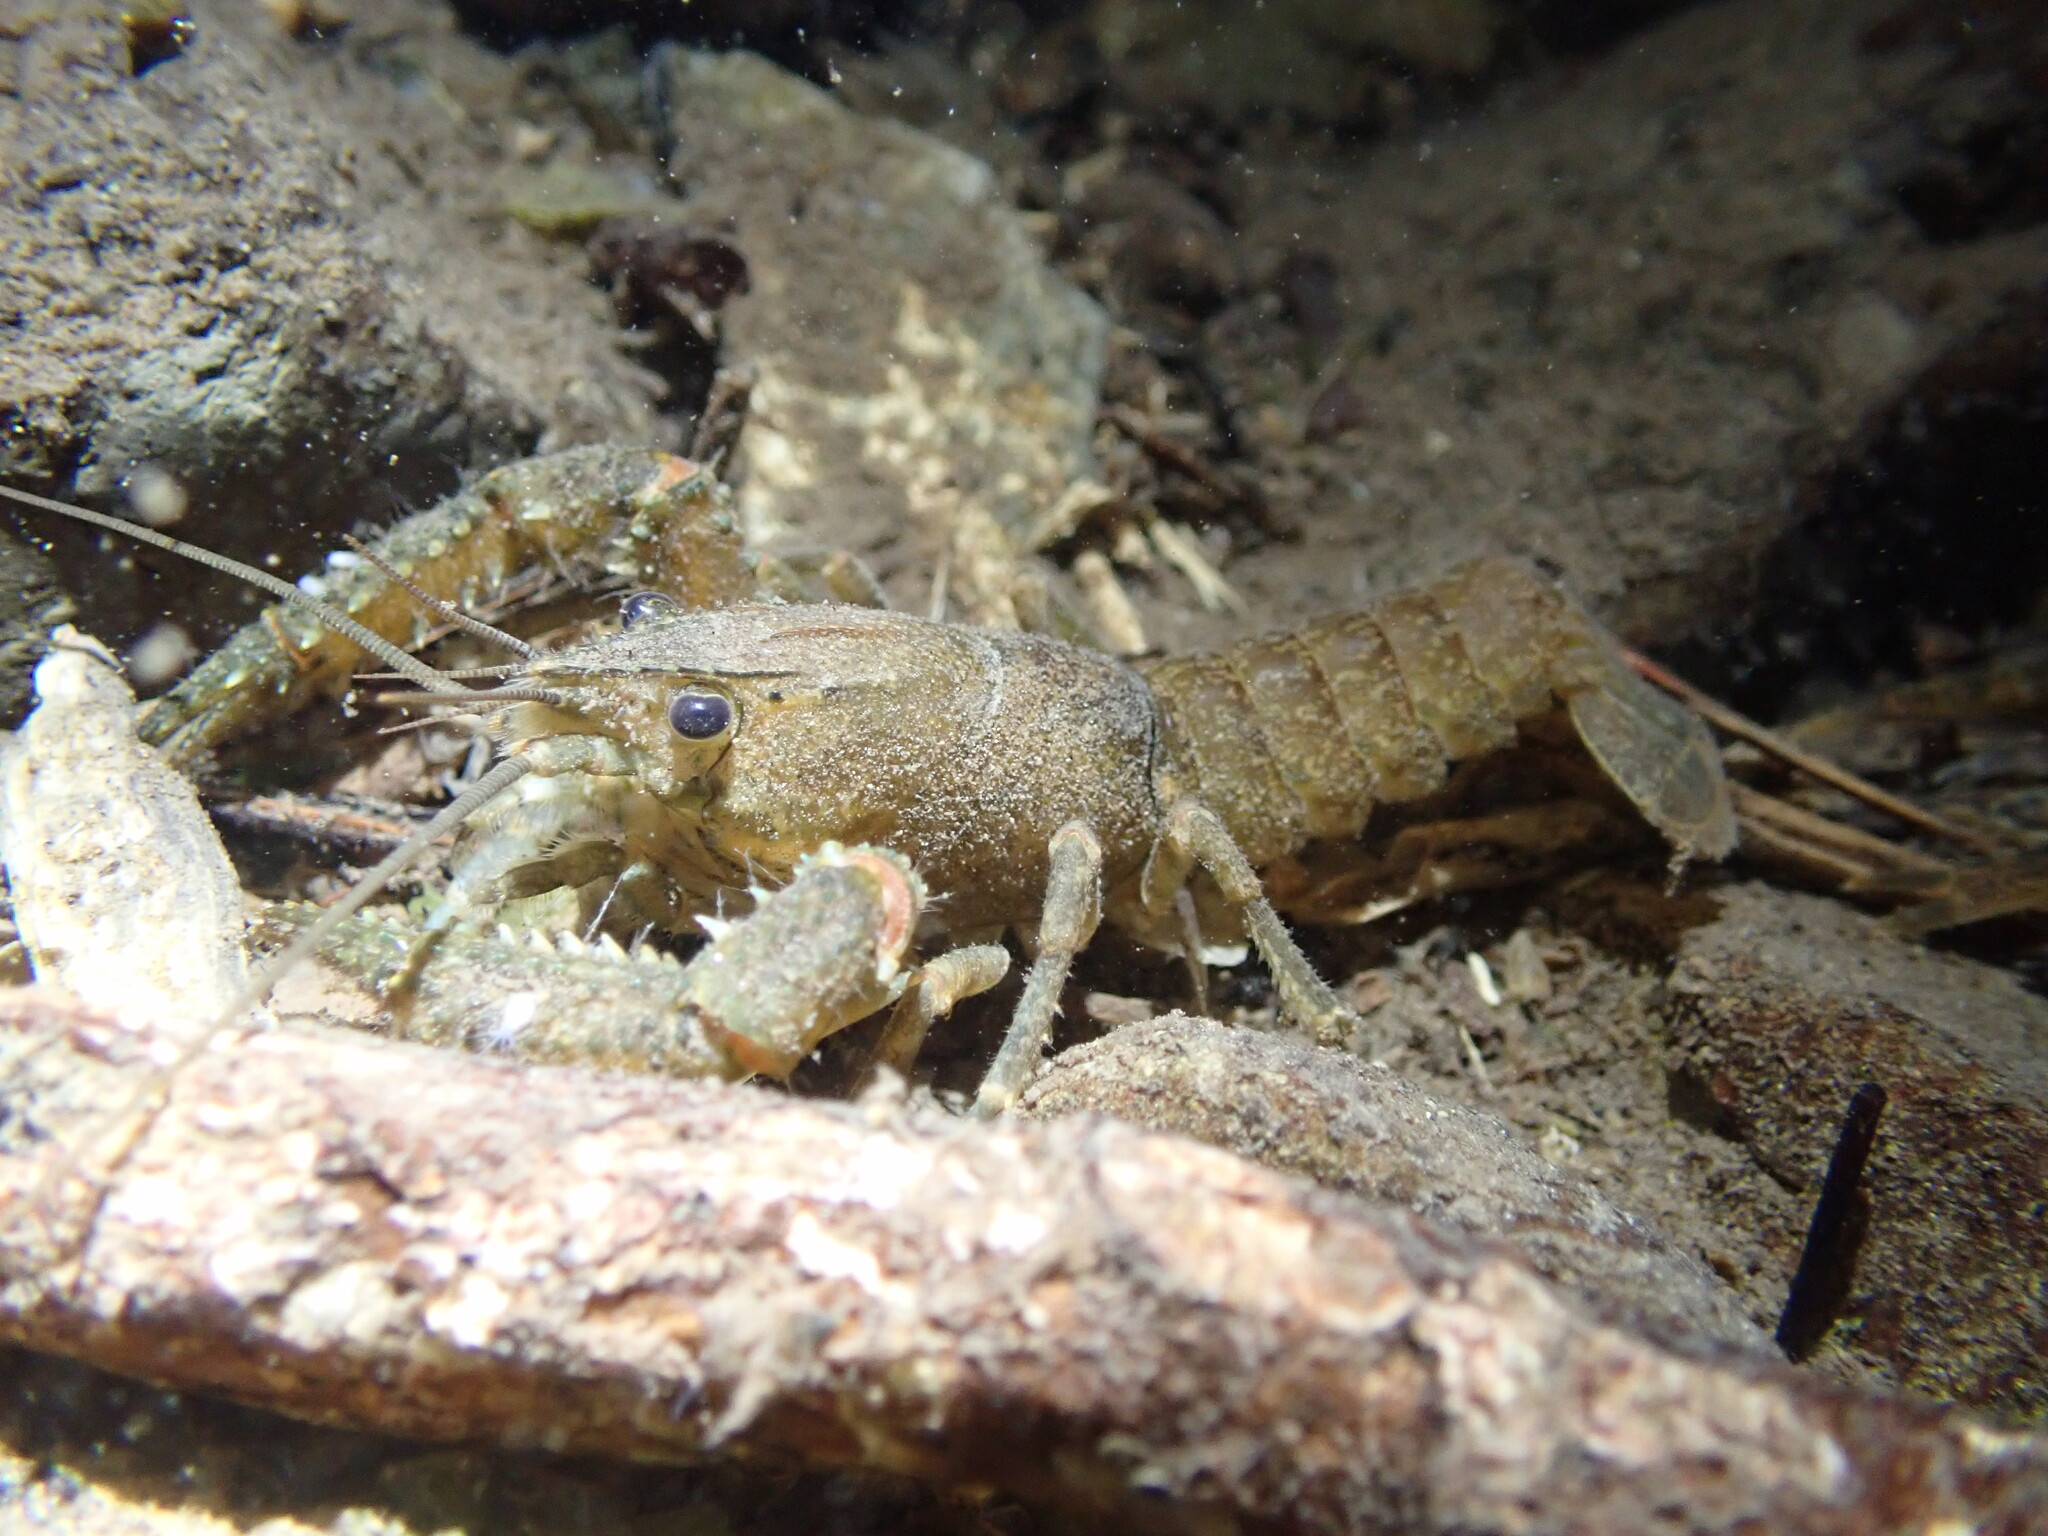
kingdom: Animalia
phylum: Arthropoda
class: Malacostraca
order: Decapoda
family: Parastacidae
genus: Paranephrops
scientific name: Paranephrops planifrons
